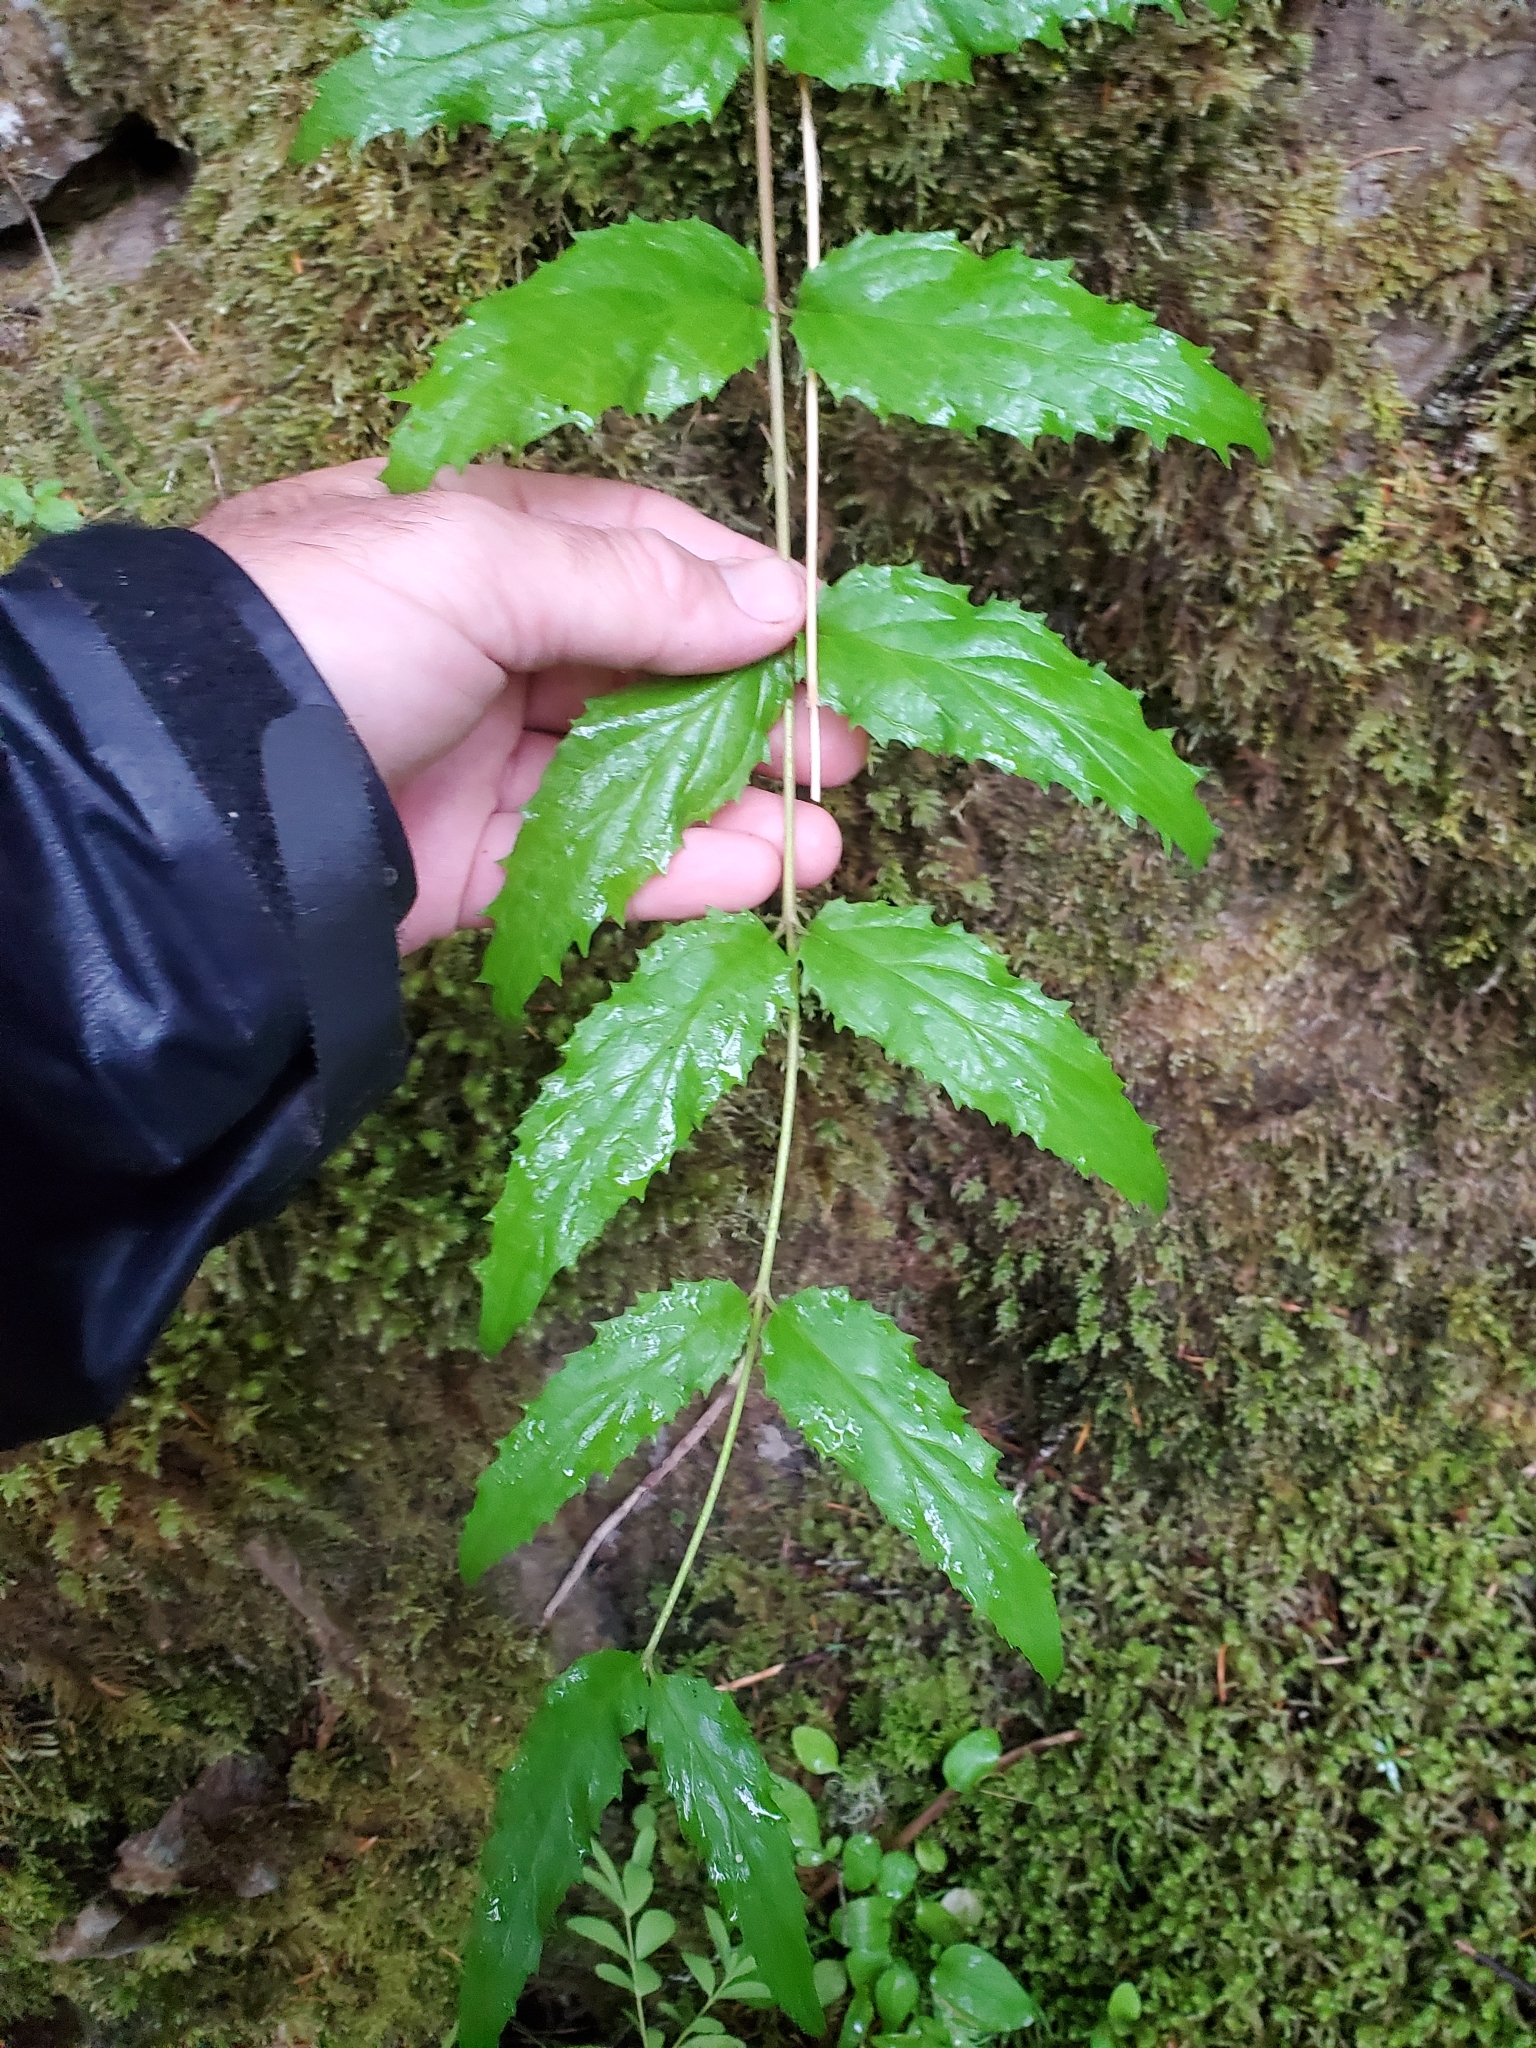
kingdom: Plantae
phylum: Tracheophyta
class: Magnoliopsida
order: Lamiales
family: Plantaginaceae
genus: Nothochelone
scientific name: Nothochelone nemorosa
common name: Woodland beardtongue
